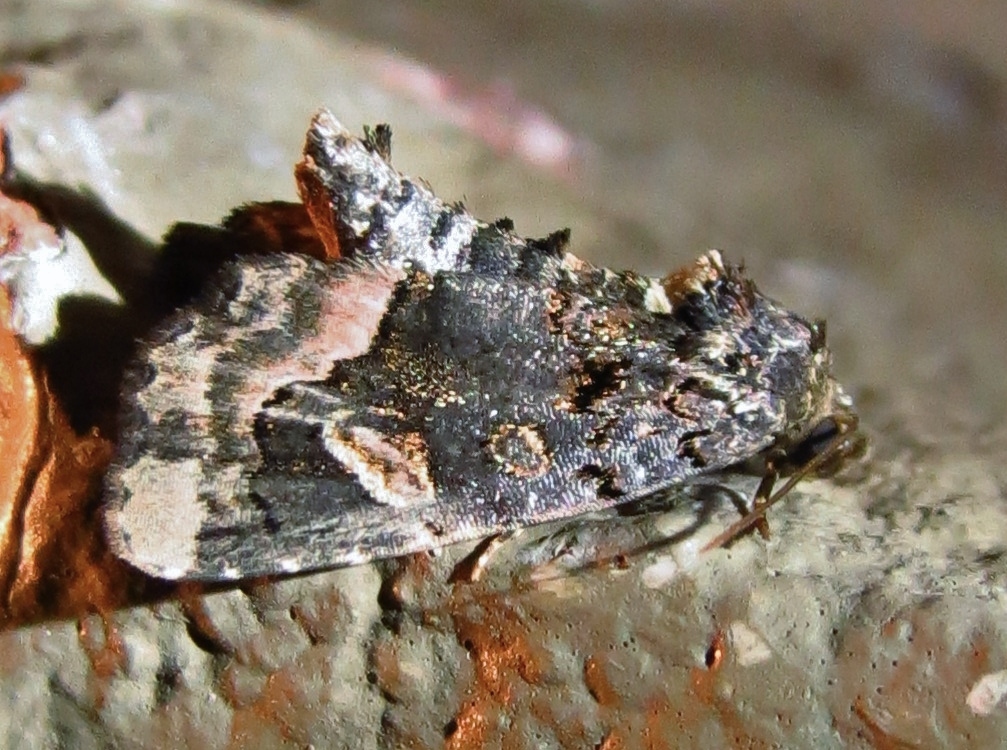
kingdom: Animalia
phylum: Arthropoda
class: Insecta
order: Lepidoptera
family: Noctuidae
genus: Homophoberia
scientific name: Homophoberia apicosa
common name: Black wedge-spot
